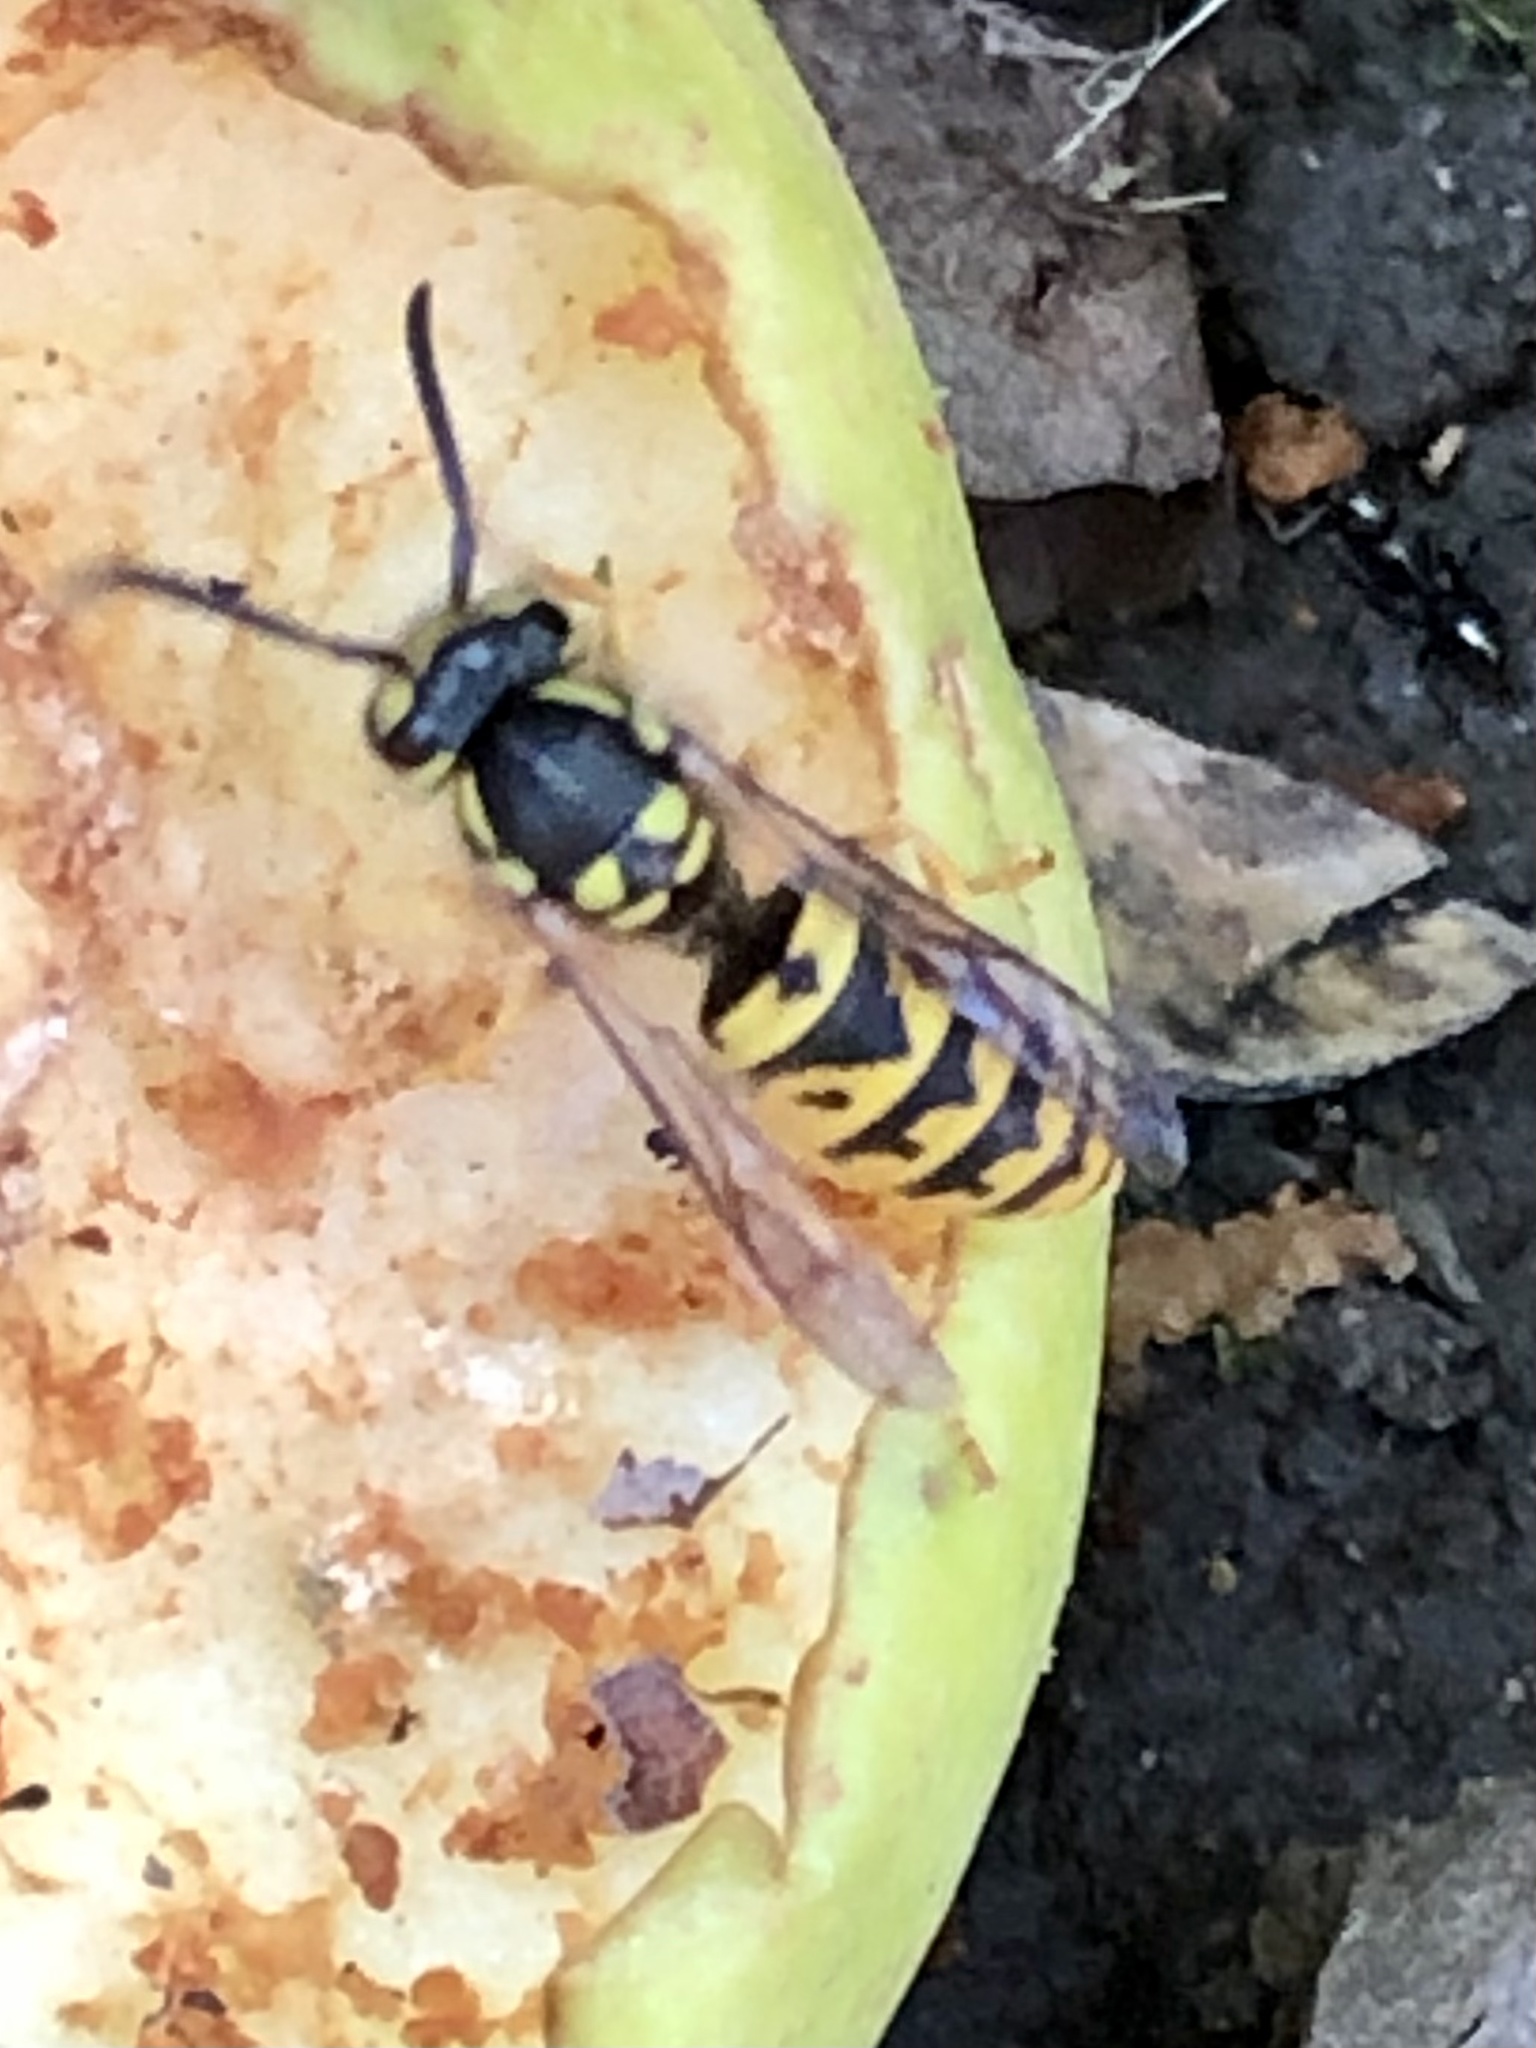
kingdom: Animalia
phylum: Arthropoda
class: Insecta
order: Hymenoptera
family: Vespidae
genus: Vespula
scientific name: Vespula germanica
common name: German wasp
